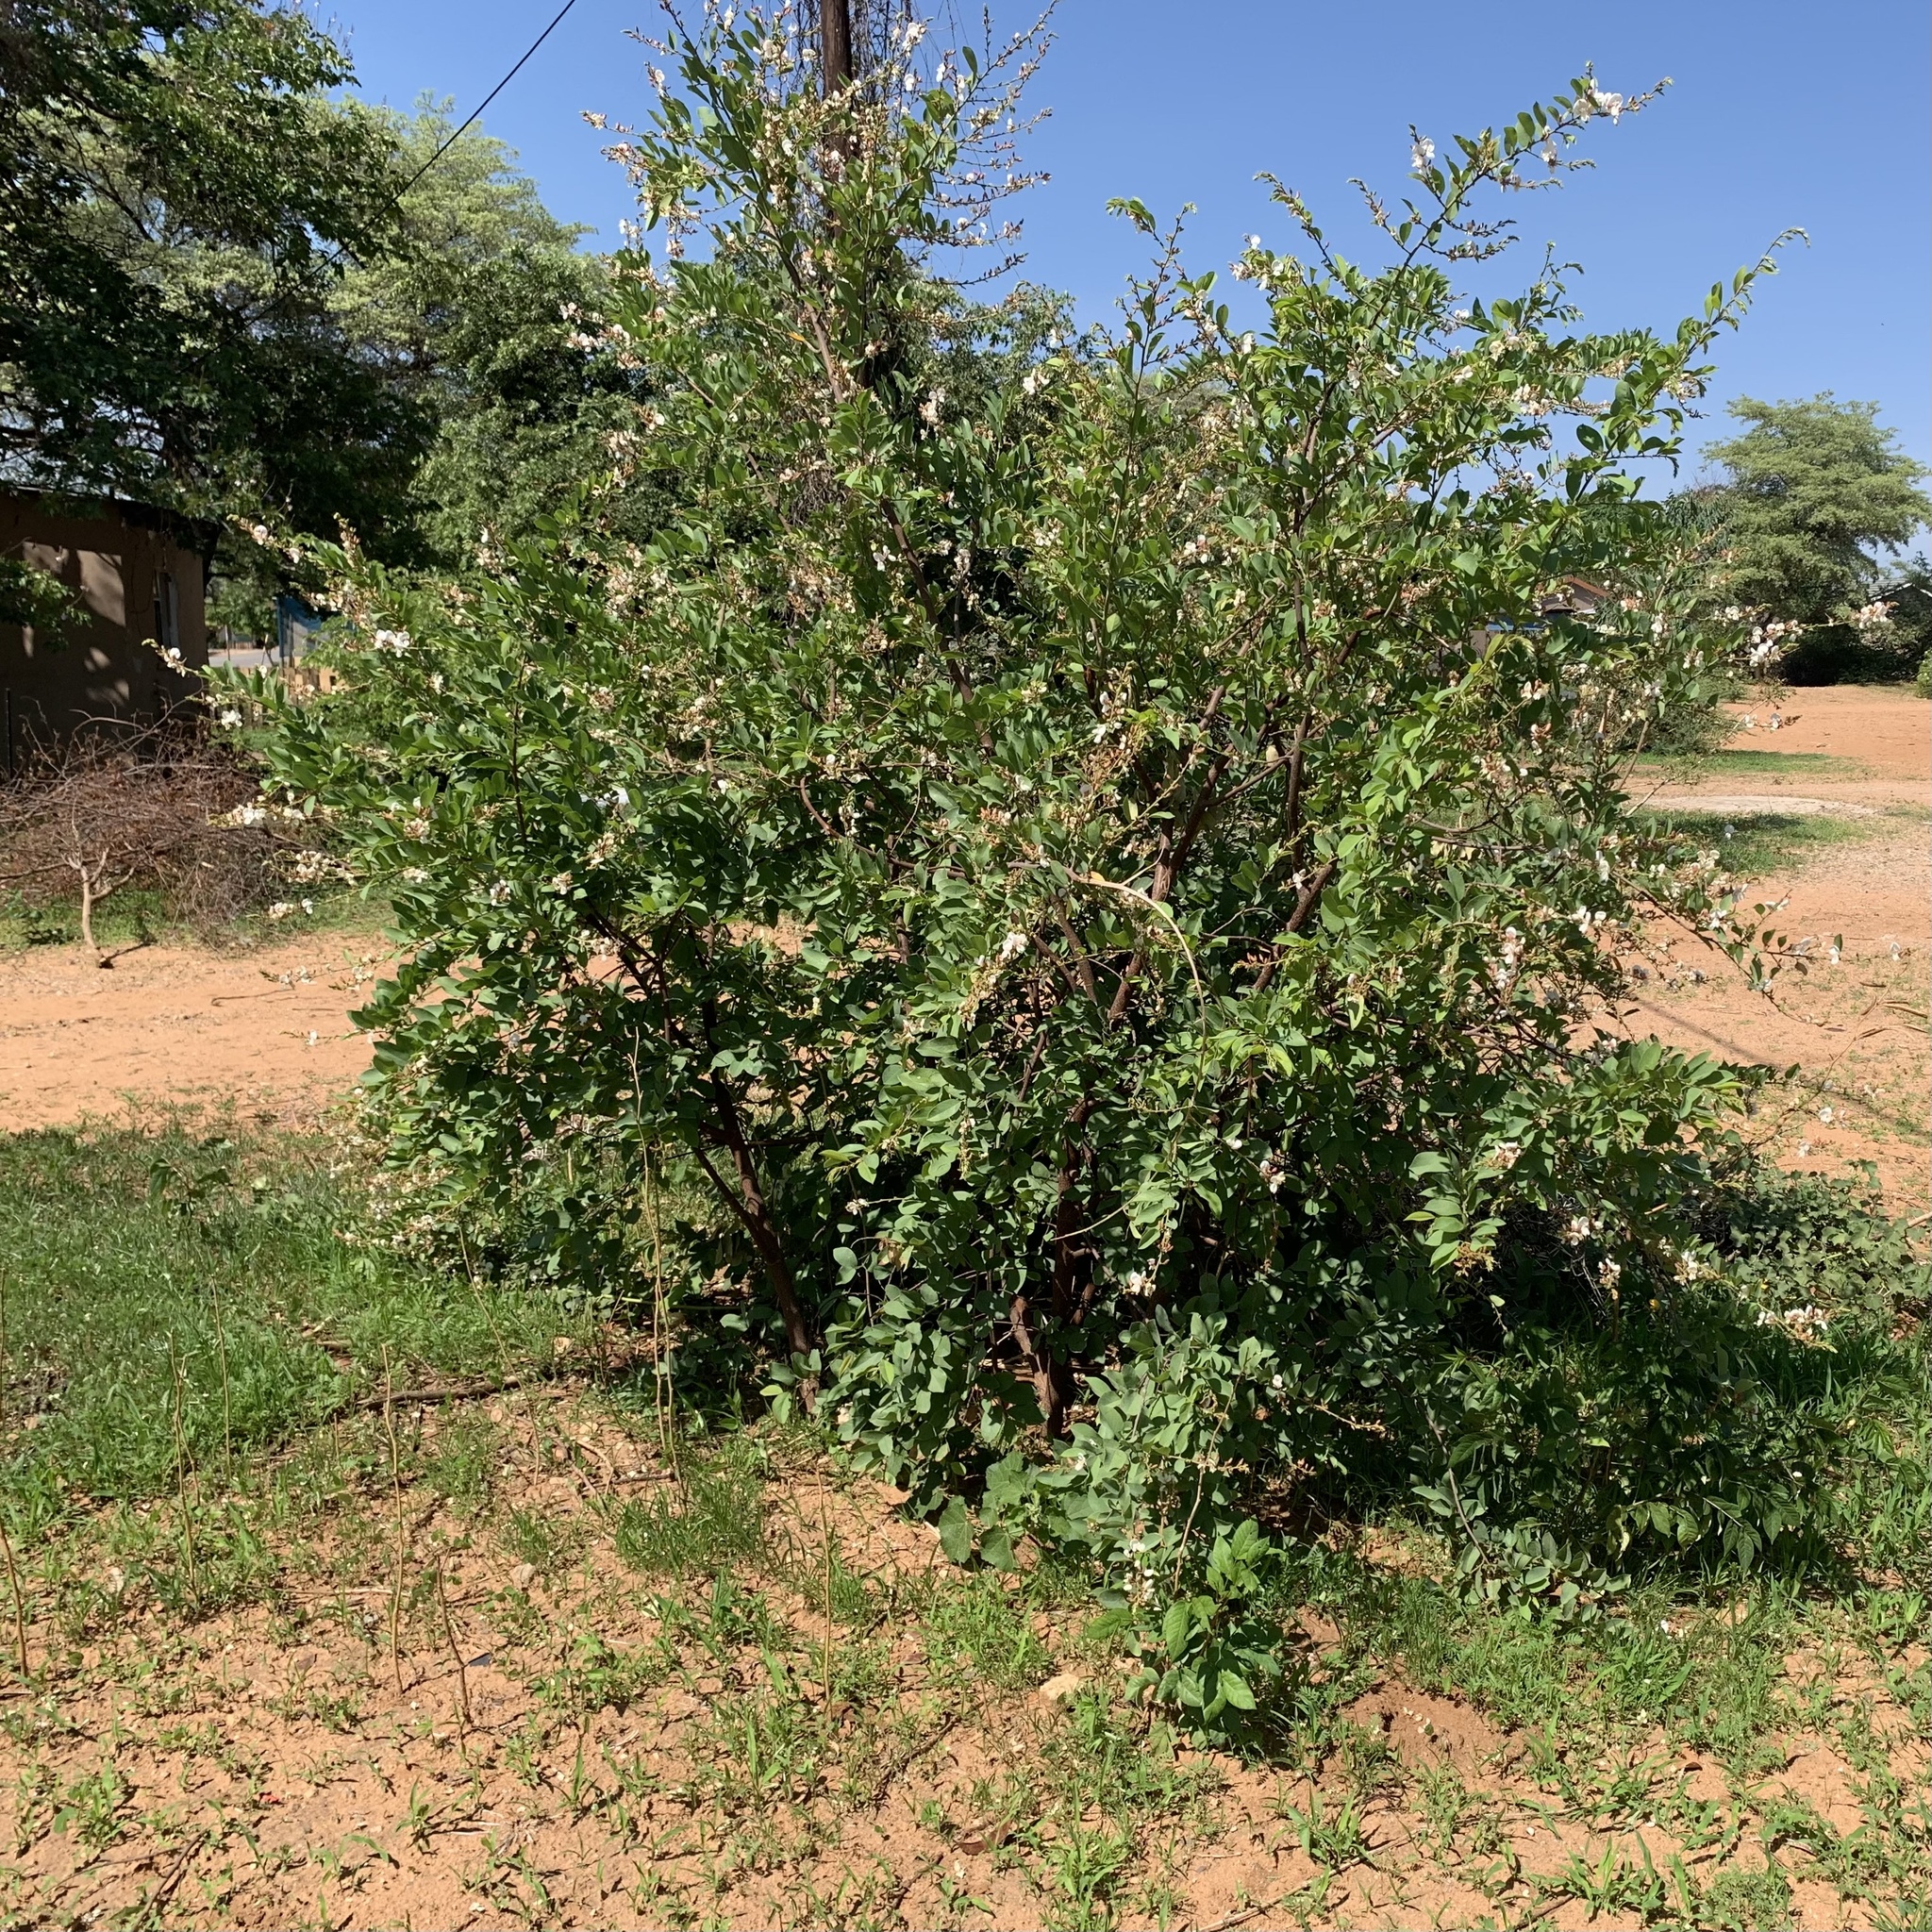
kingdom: Plantae
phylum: Tracheophyta
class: Magnoliopsida
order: Fabales
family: Fabaceae
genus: Baphia
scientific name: Baphia massaiensis
